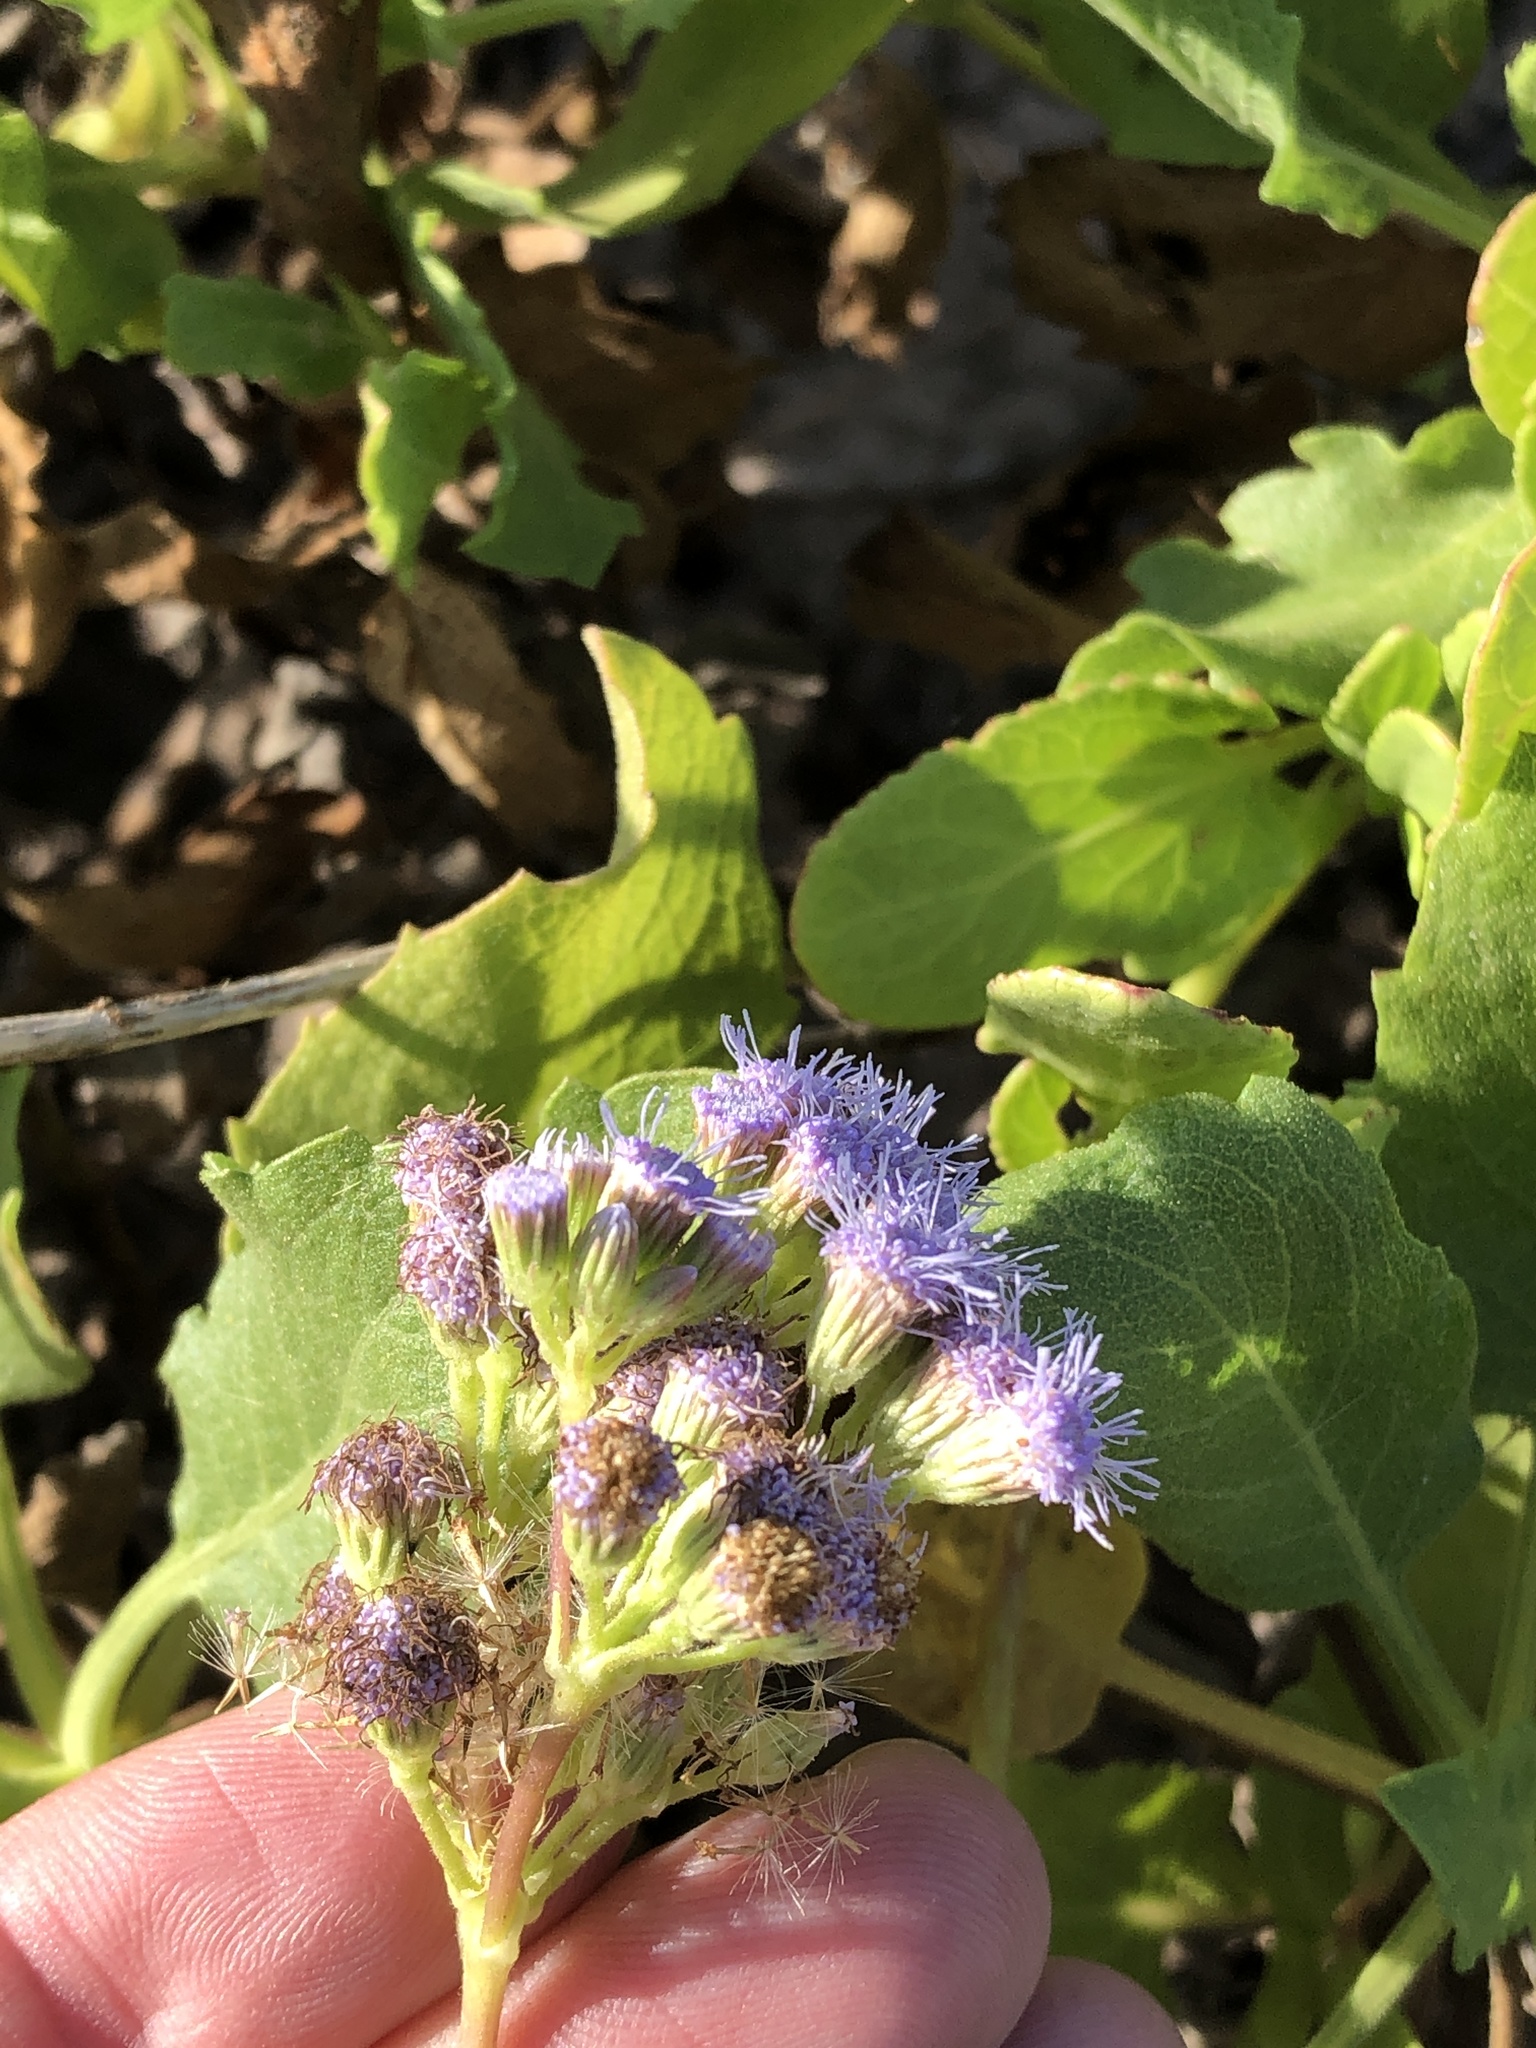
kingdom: Plantae
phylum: Tracheophyta
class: Magnoliopsida
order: Asterales
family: Asteraceae
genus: Conoclinium
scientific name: Conoclinium betonicifolium
